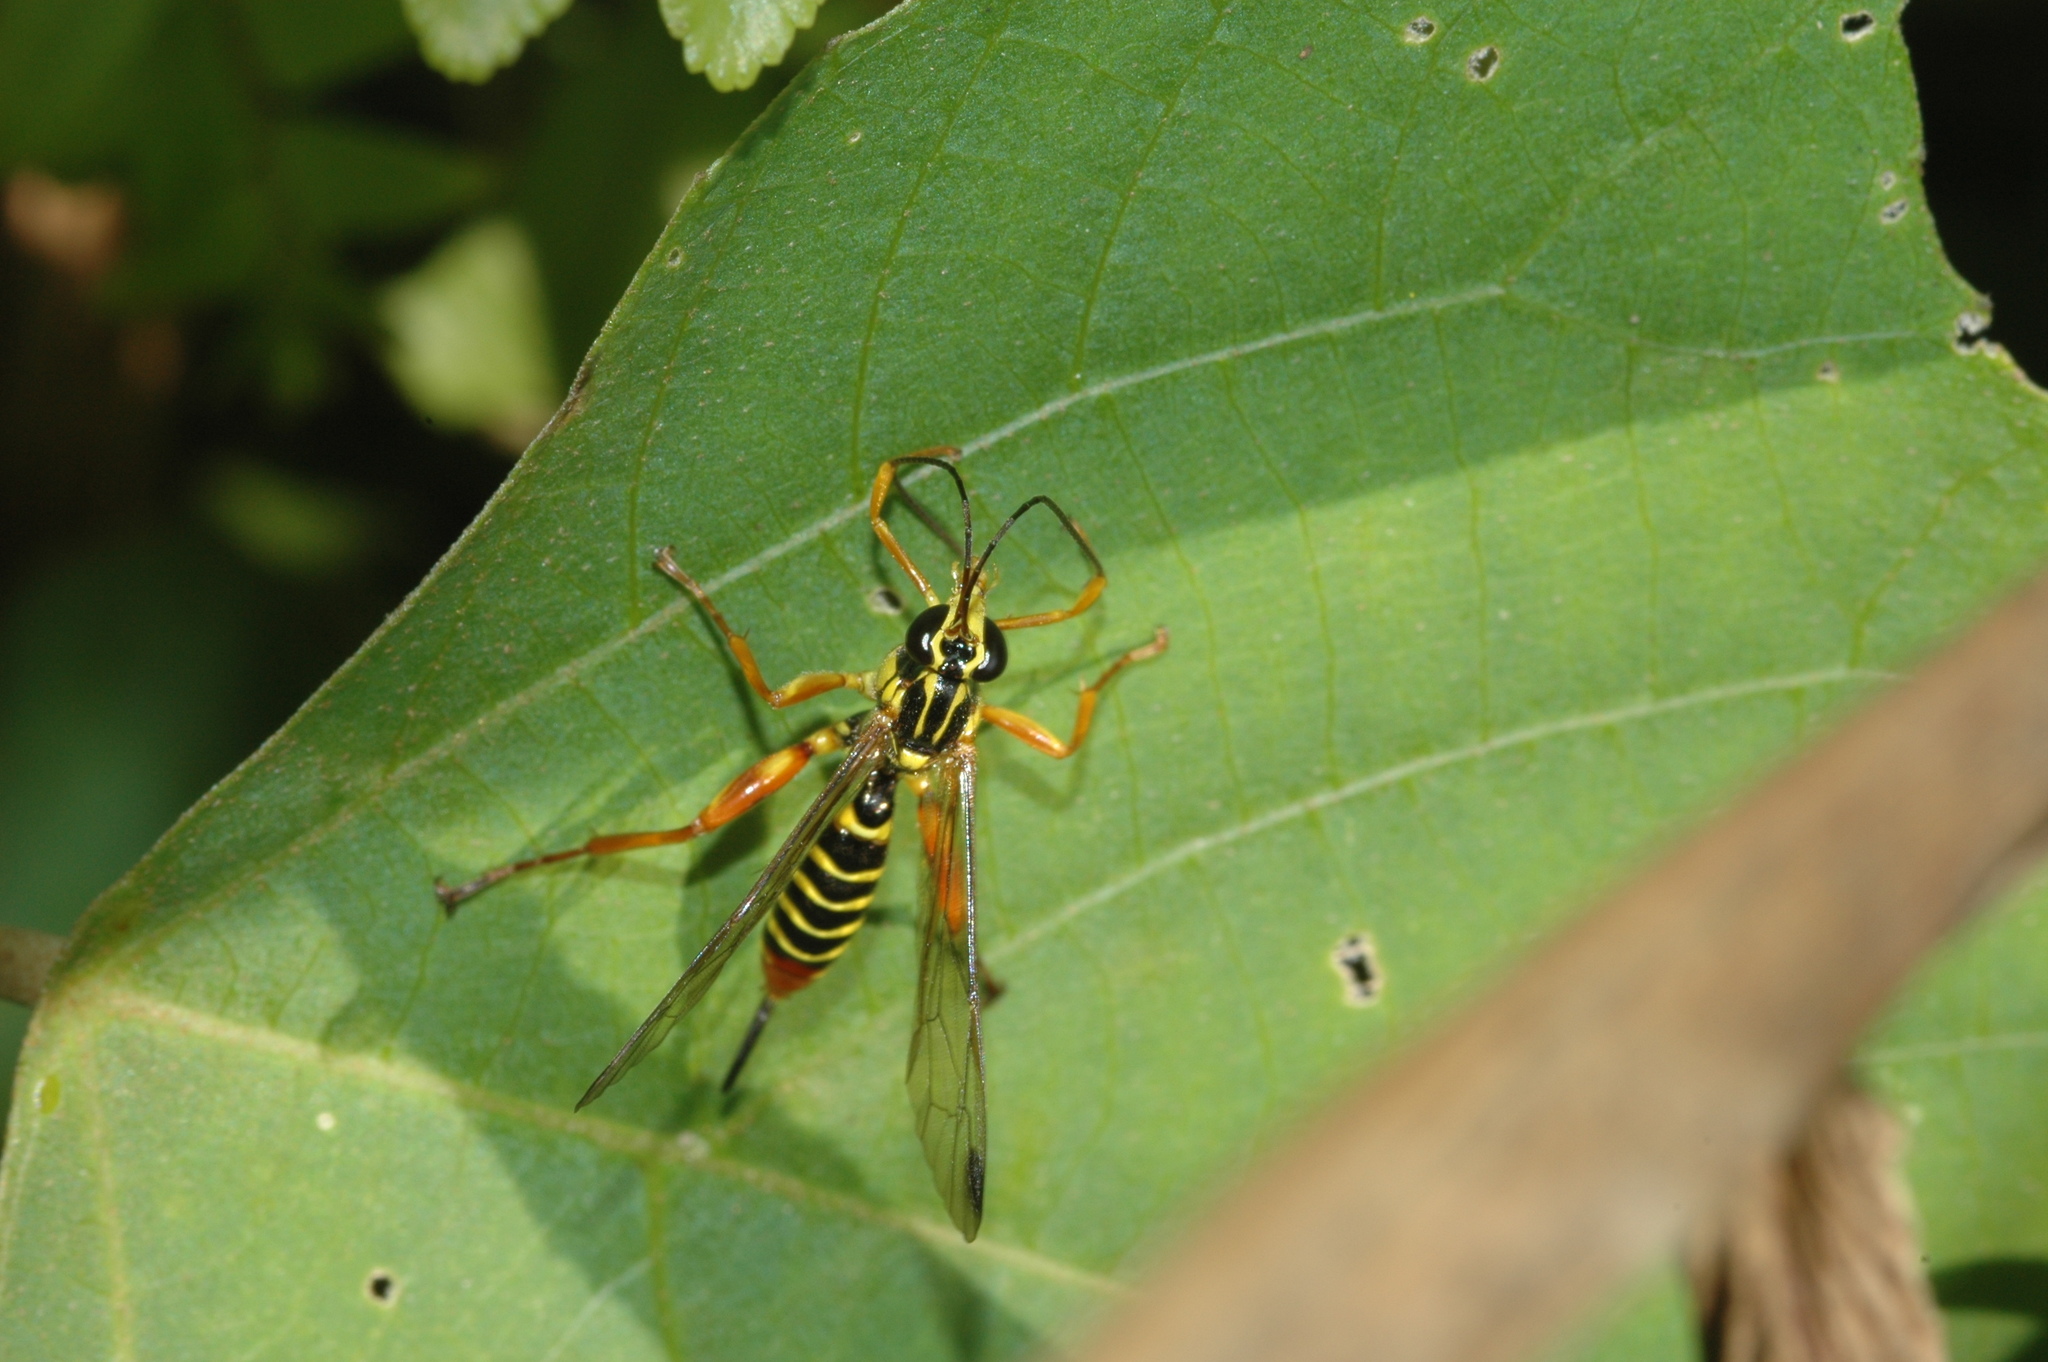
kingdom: Animalia
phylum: Arthropoda
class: Insecta
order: Hymenoptera
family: Ichneumonidae
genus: Echthromorpha
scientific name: Echthromorpha agrestoria
